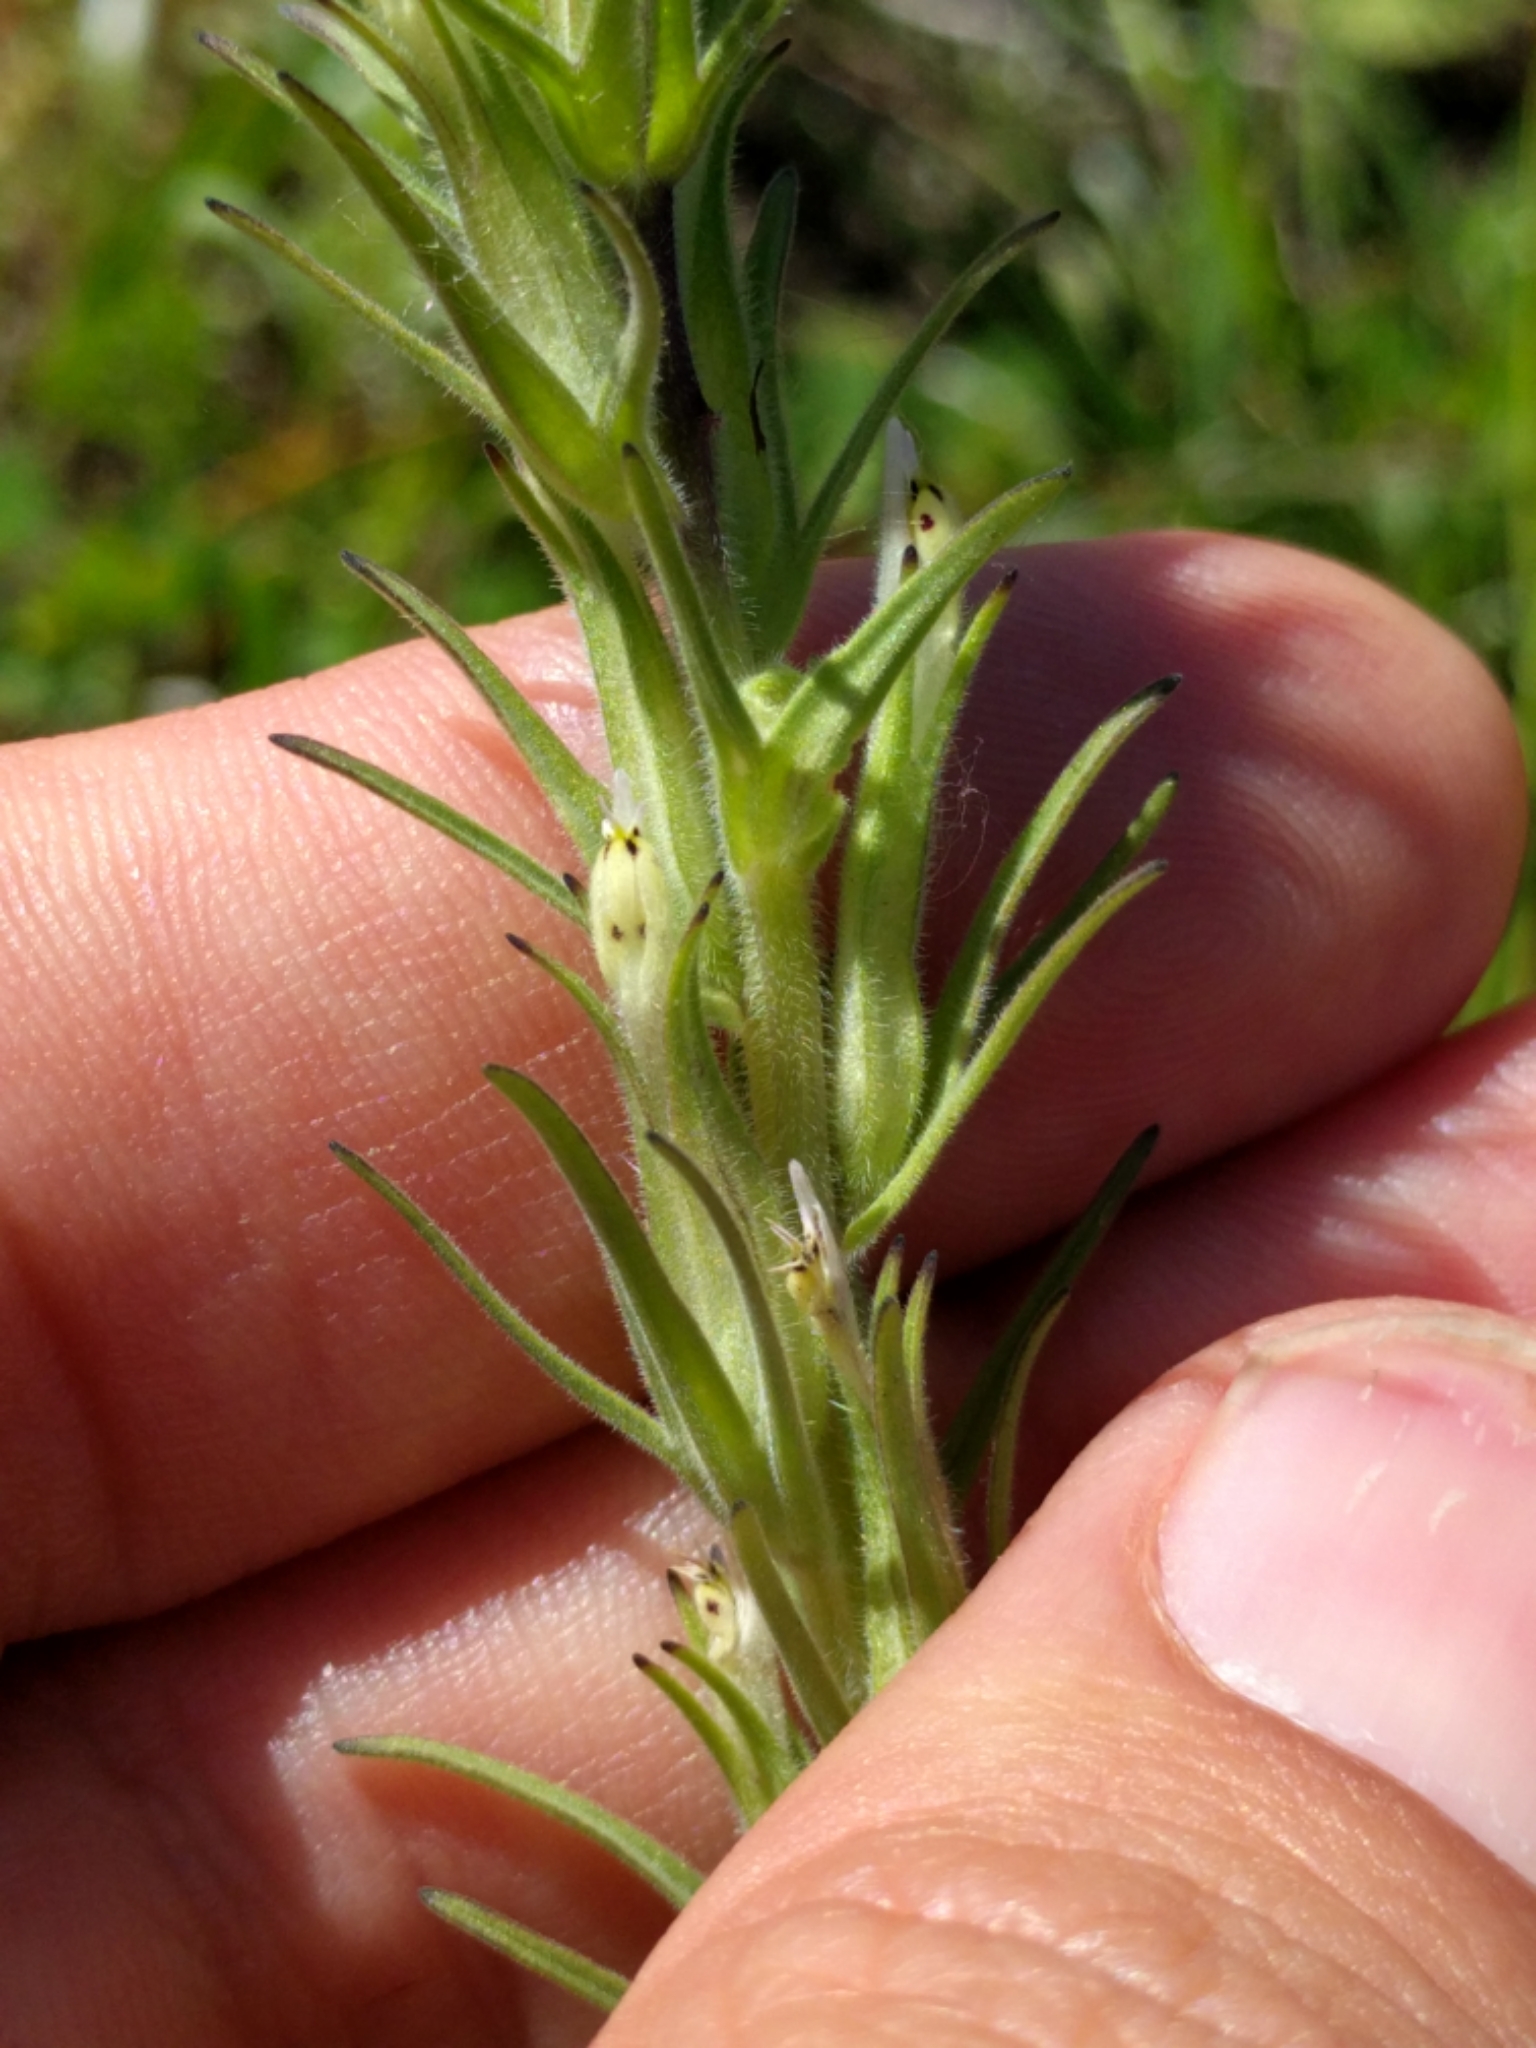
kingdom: Plantae
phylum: Tracheophyta
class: Magnoliopsida
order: Lamiales
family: Orobanchaceae
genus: Castilleja
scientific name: Castilleja attenuata
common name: Valley tassels
